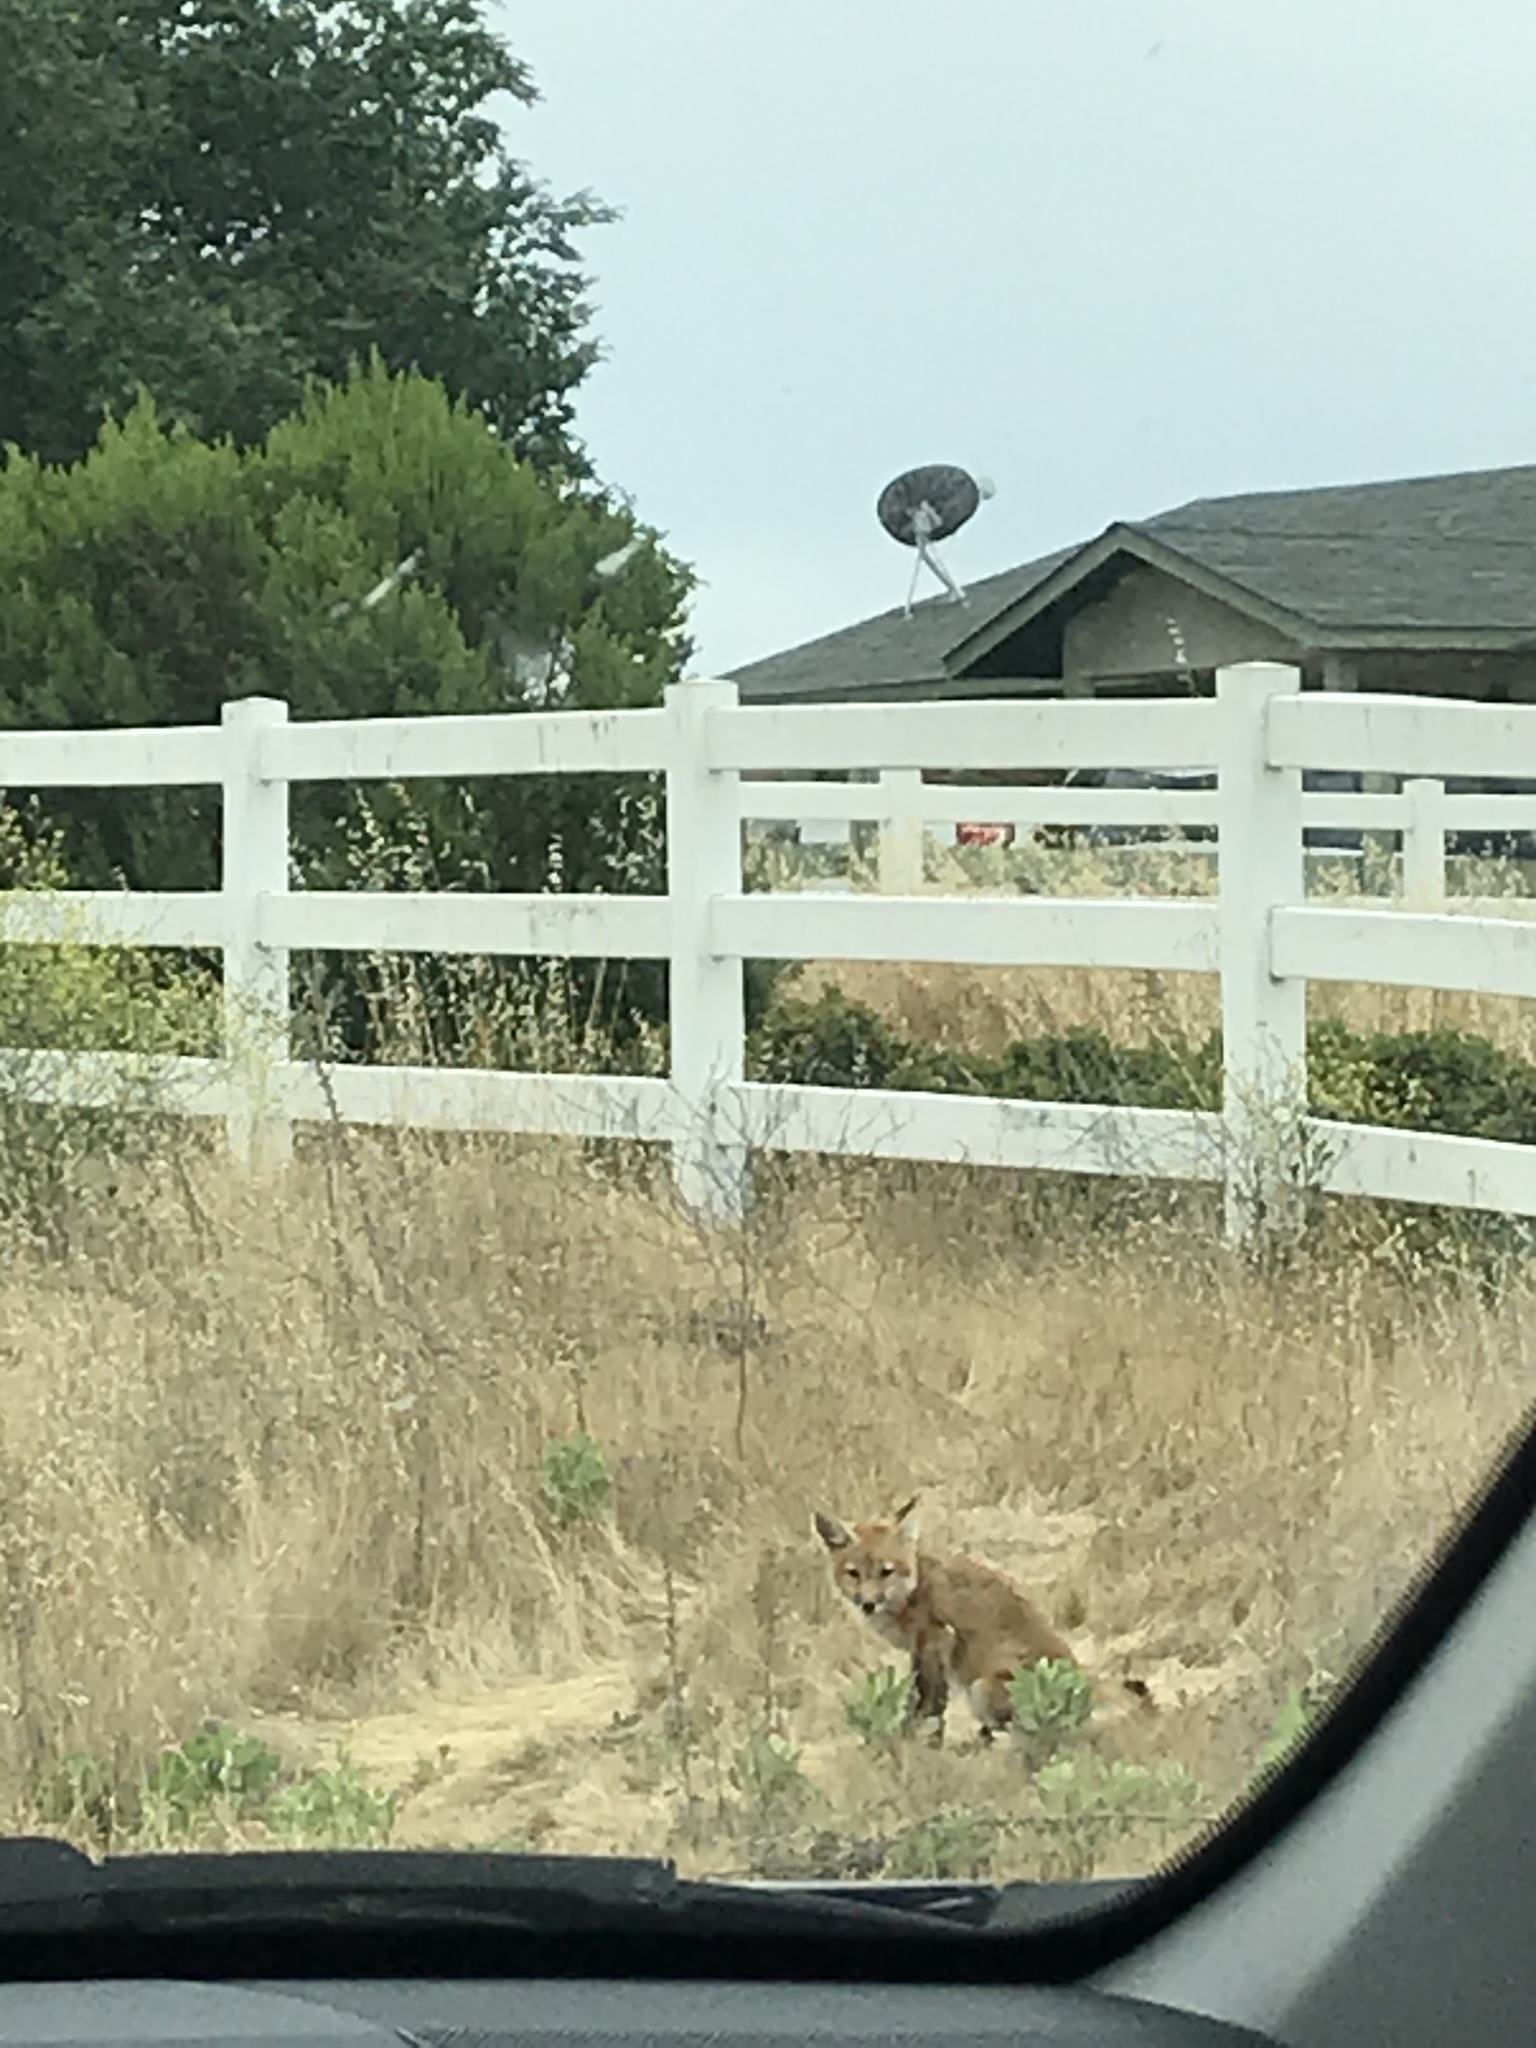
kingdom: Animalia
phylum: Chordata
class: Mammalia
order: Carnivora
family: Canidae
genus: Vulpes
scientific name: Vulpes vulpes
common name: Red fox
